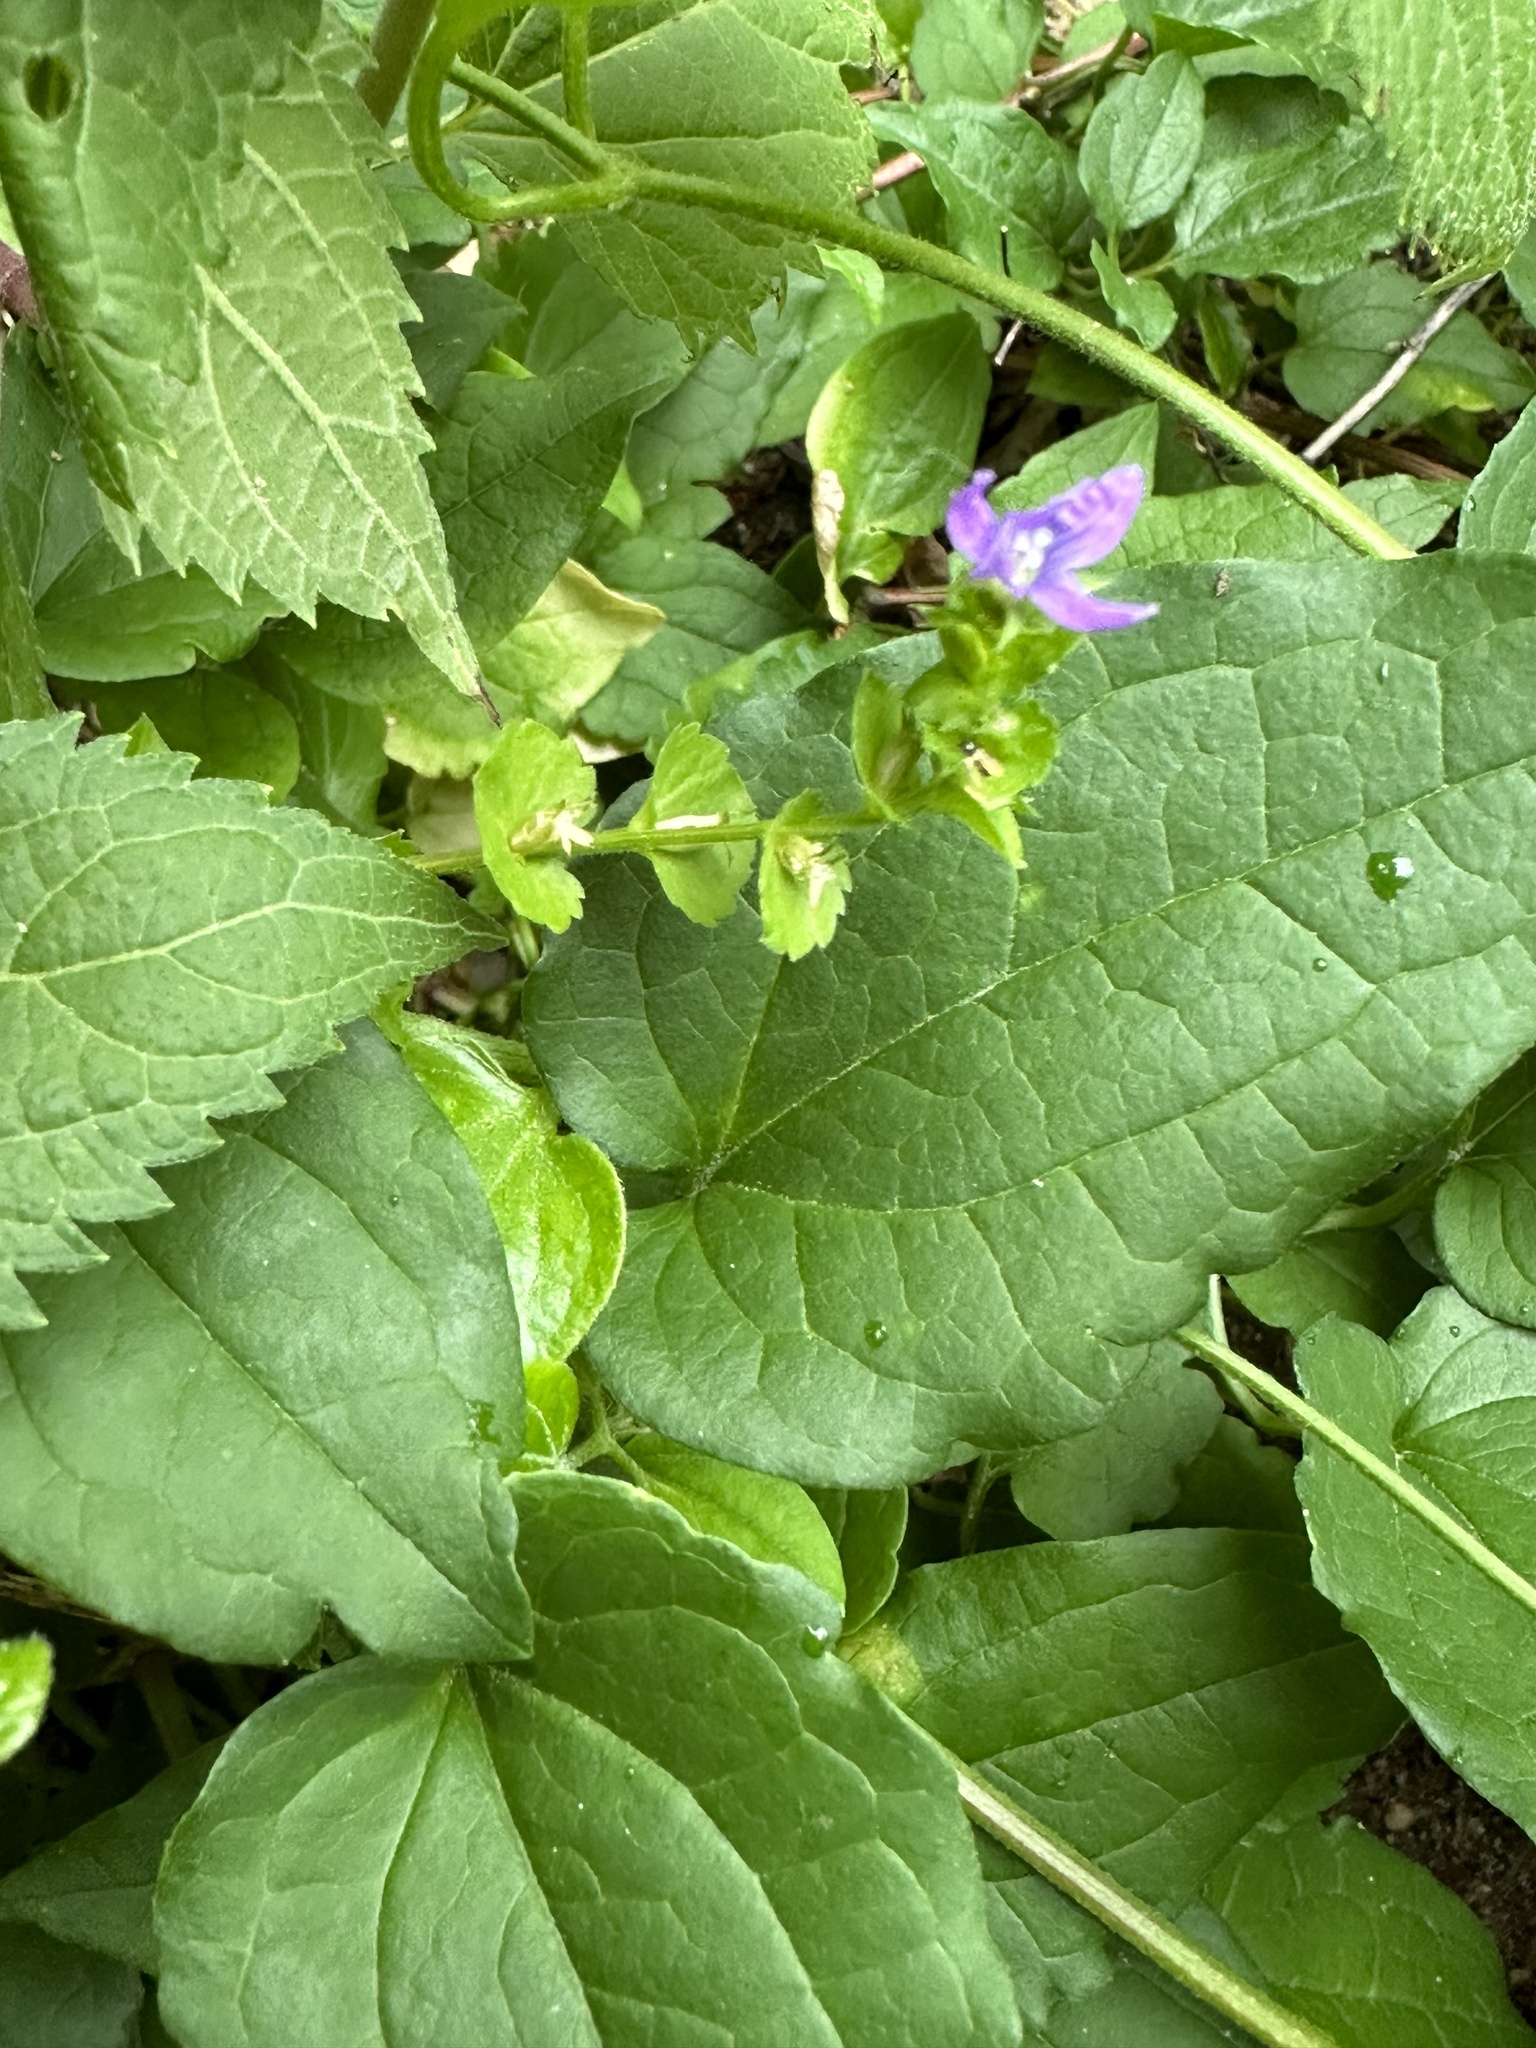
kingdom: Plantae
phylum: Tracheophyta
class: Magnoliopsida
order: Asterales
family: Campanulaceae
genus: Triodanis
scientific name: Triodanis perfoliata
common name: Clasping venus' looking-glass
